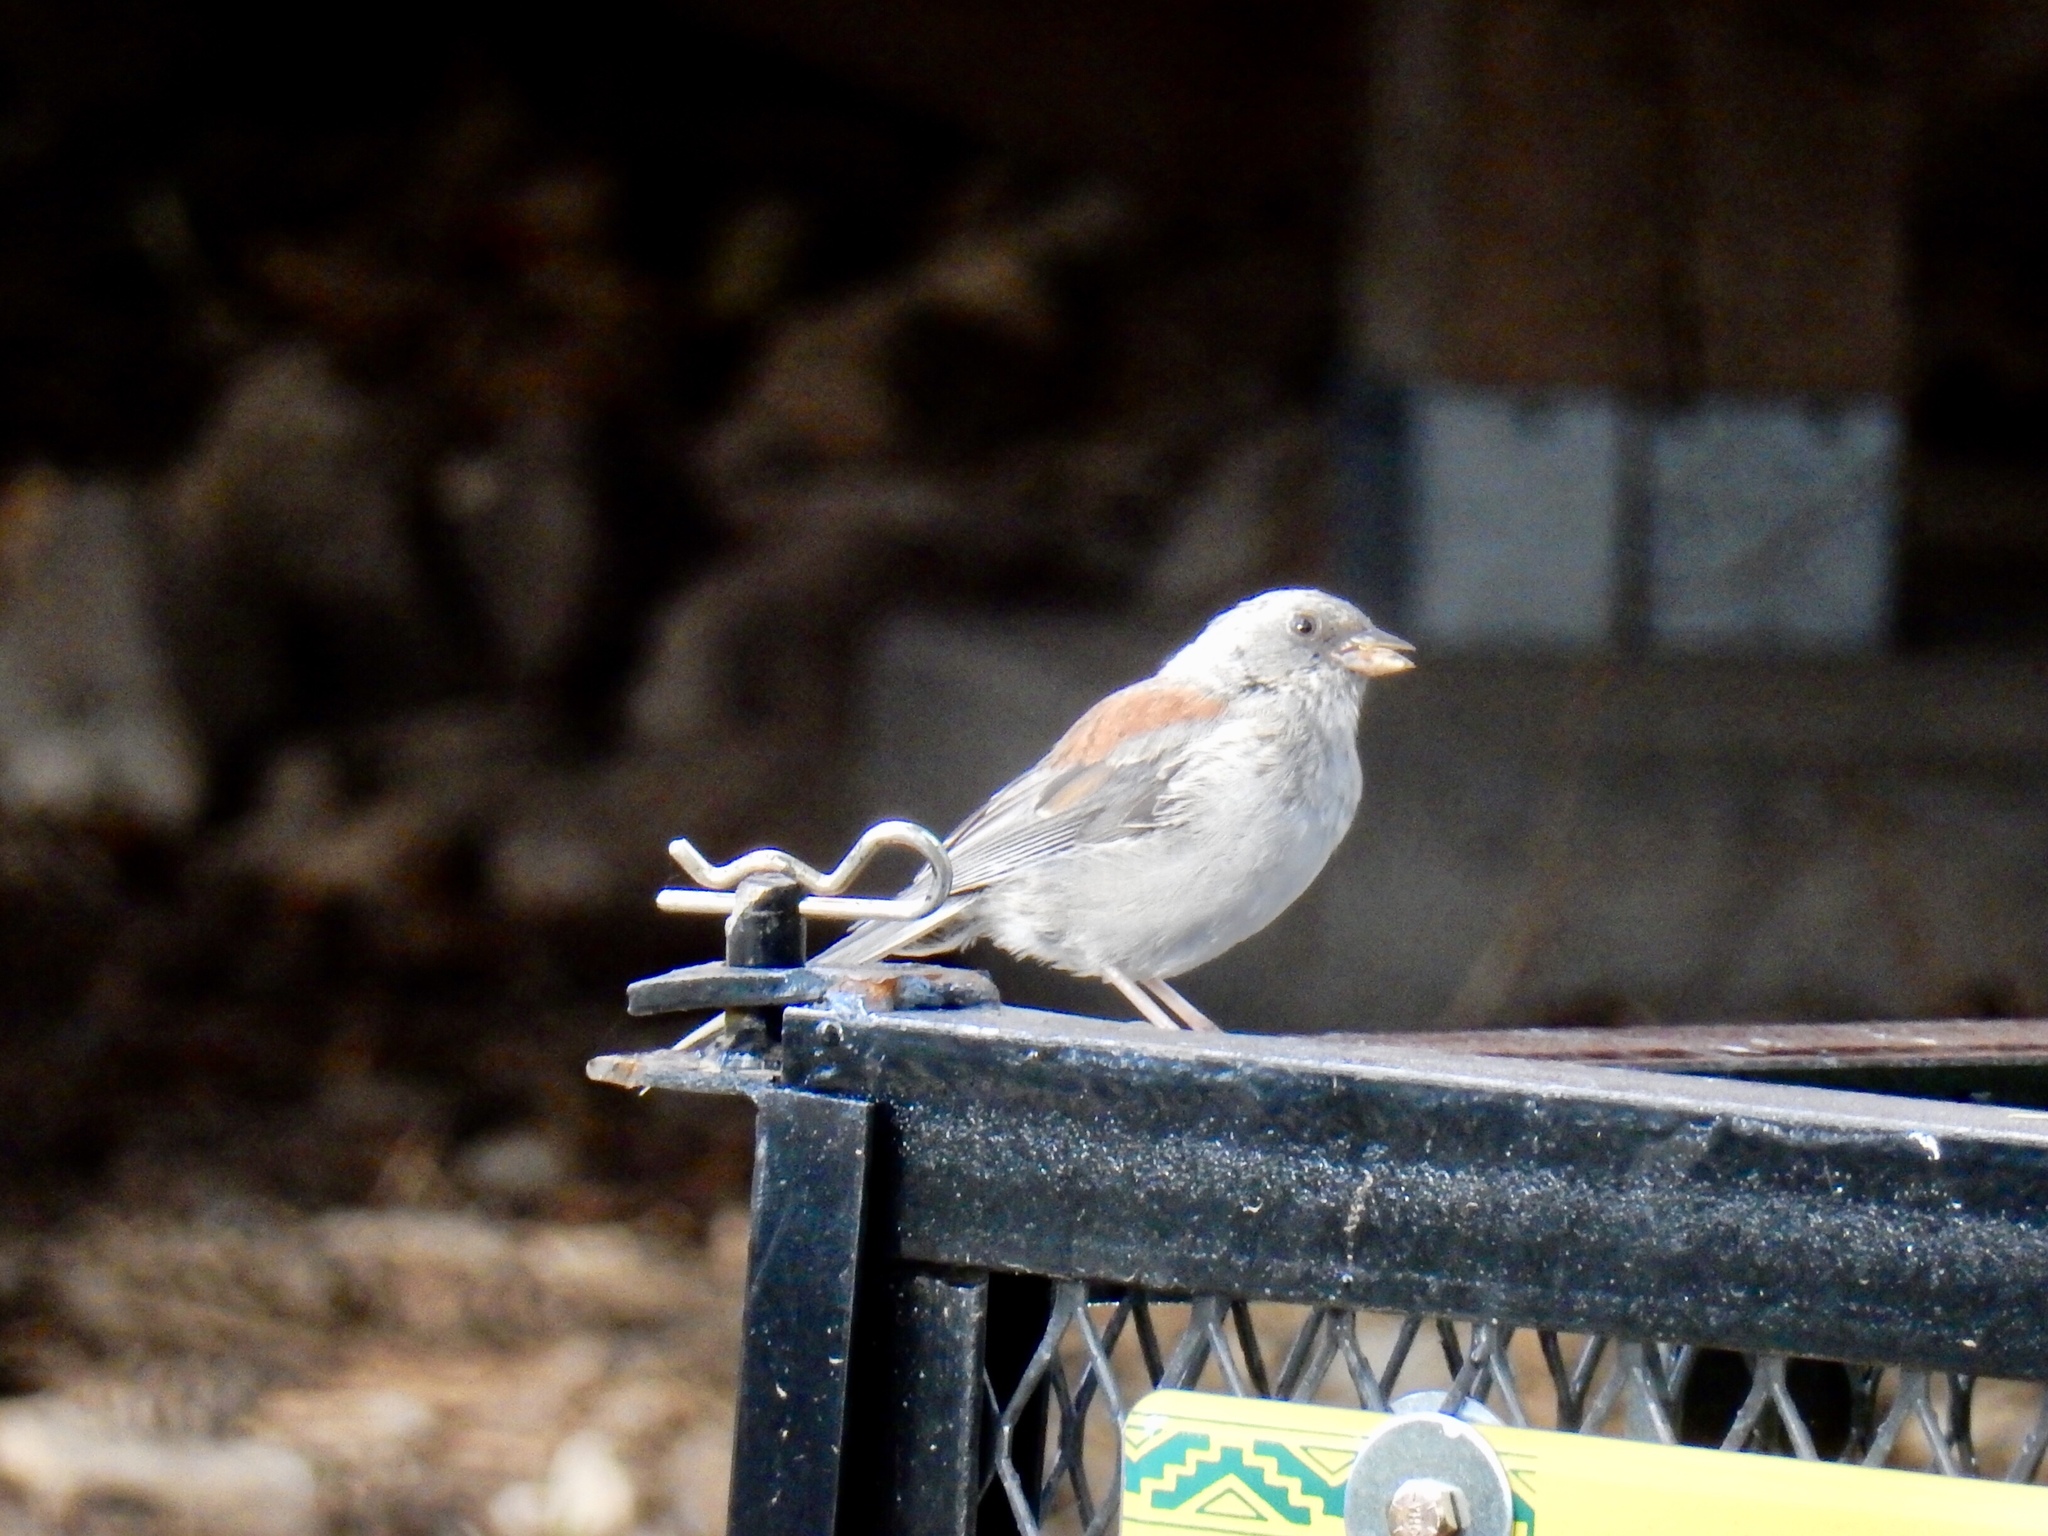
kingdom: Animalia
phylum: Chordata
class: Aves
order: Passeriformes
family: Passerellidae
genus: Junco
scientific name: Junco hyemalis
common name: Dark-eyed junco
